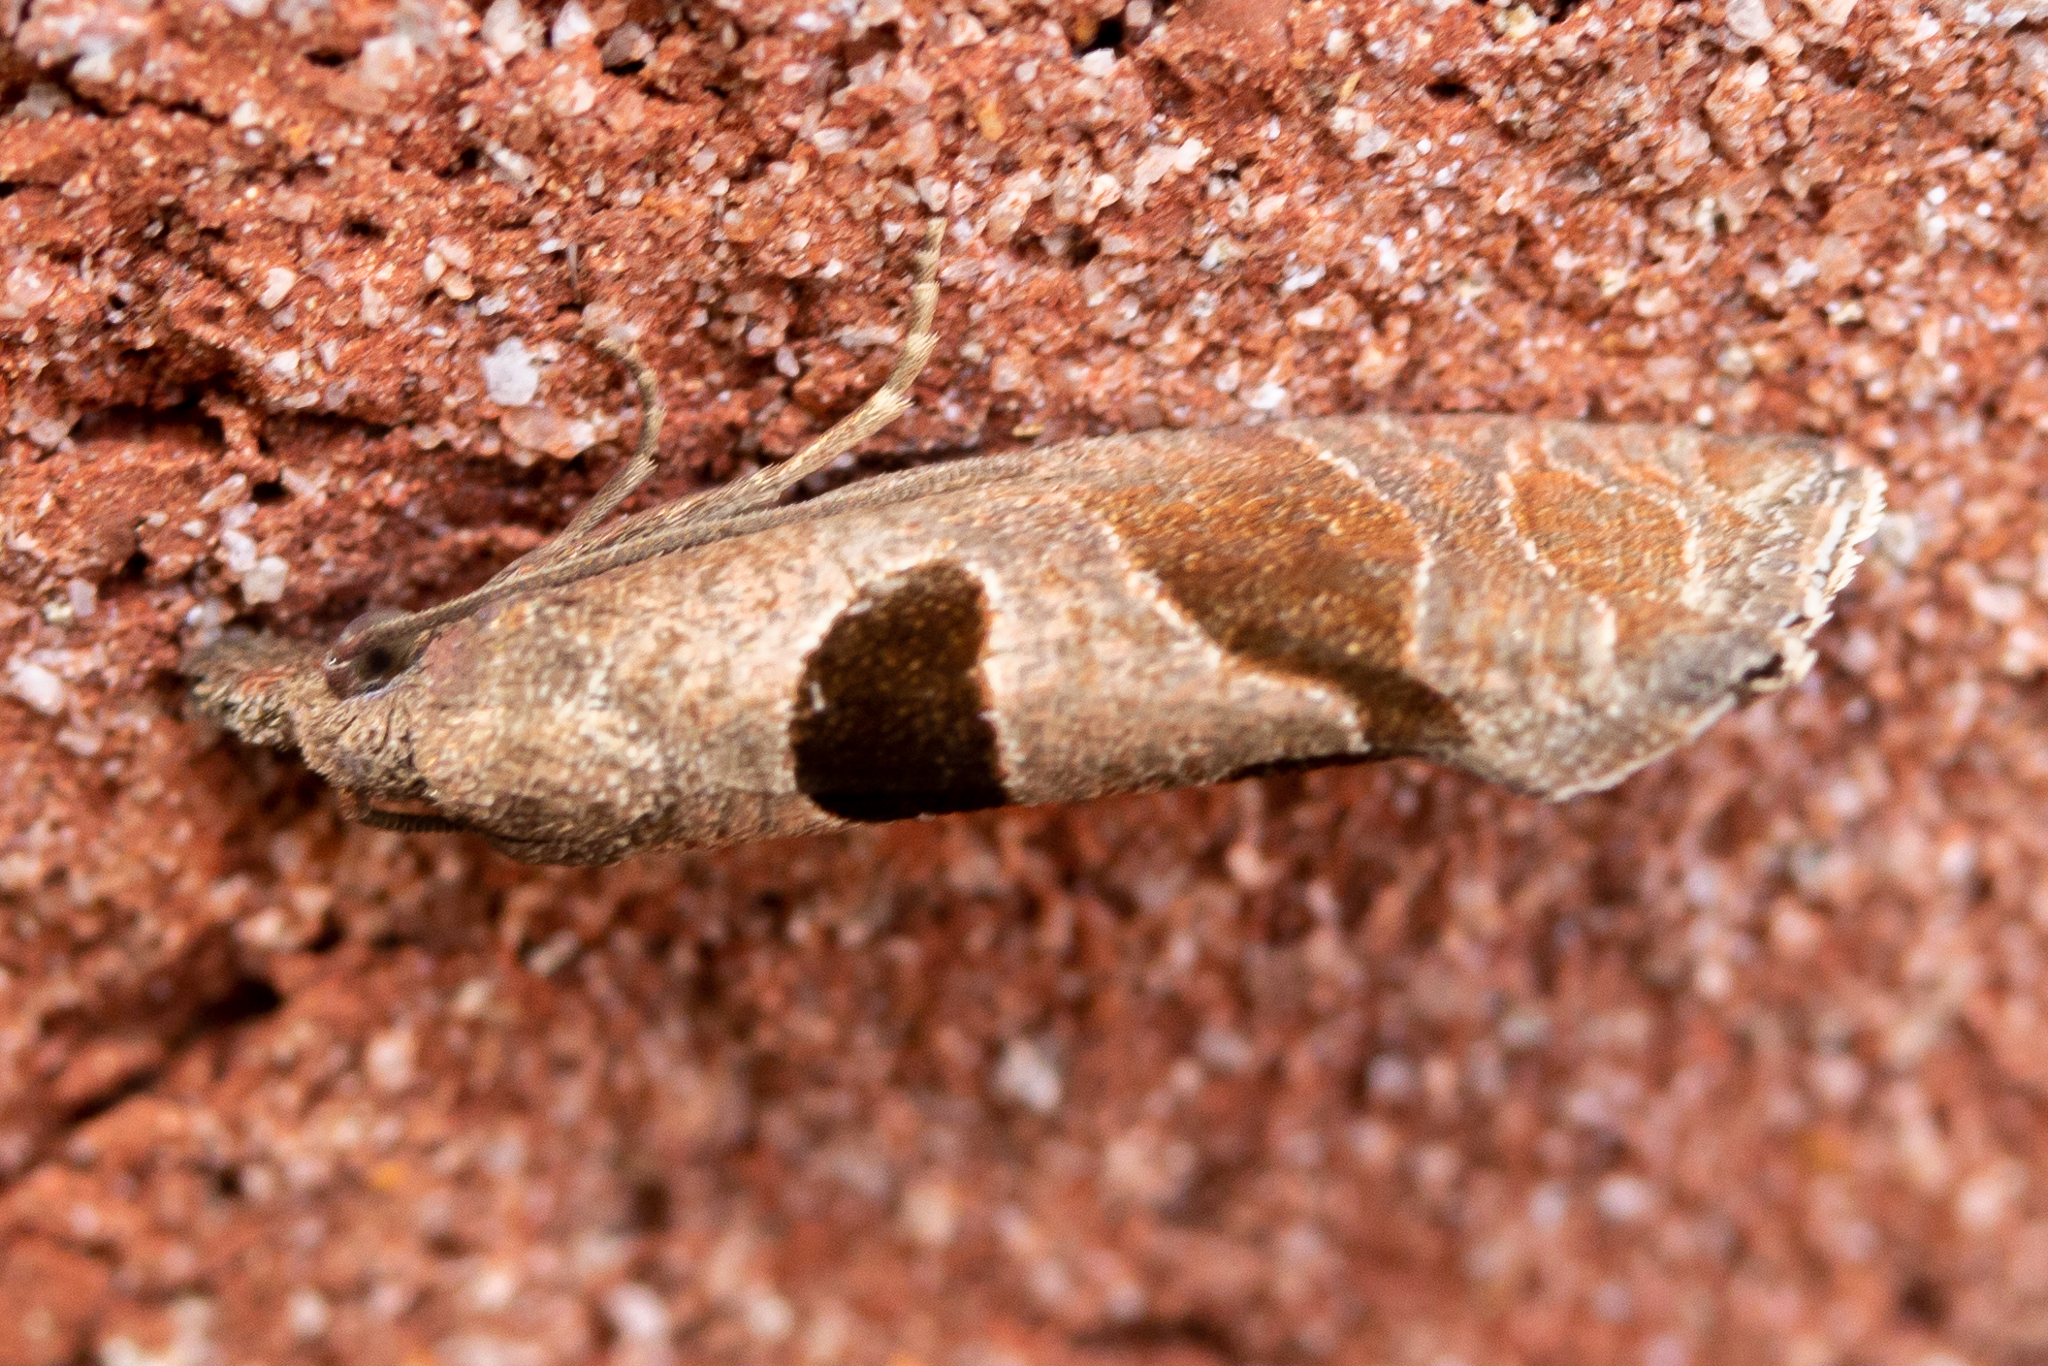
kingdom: Animalia
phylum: Arthropoda
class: Insecta
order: Lepidoptera
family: Tortricidae
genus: Pelochrista
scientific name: Pelochrista dorsisignatana
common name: Triangle-backed pelochrista moth
